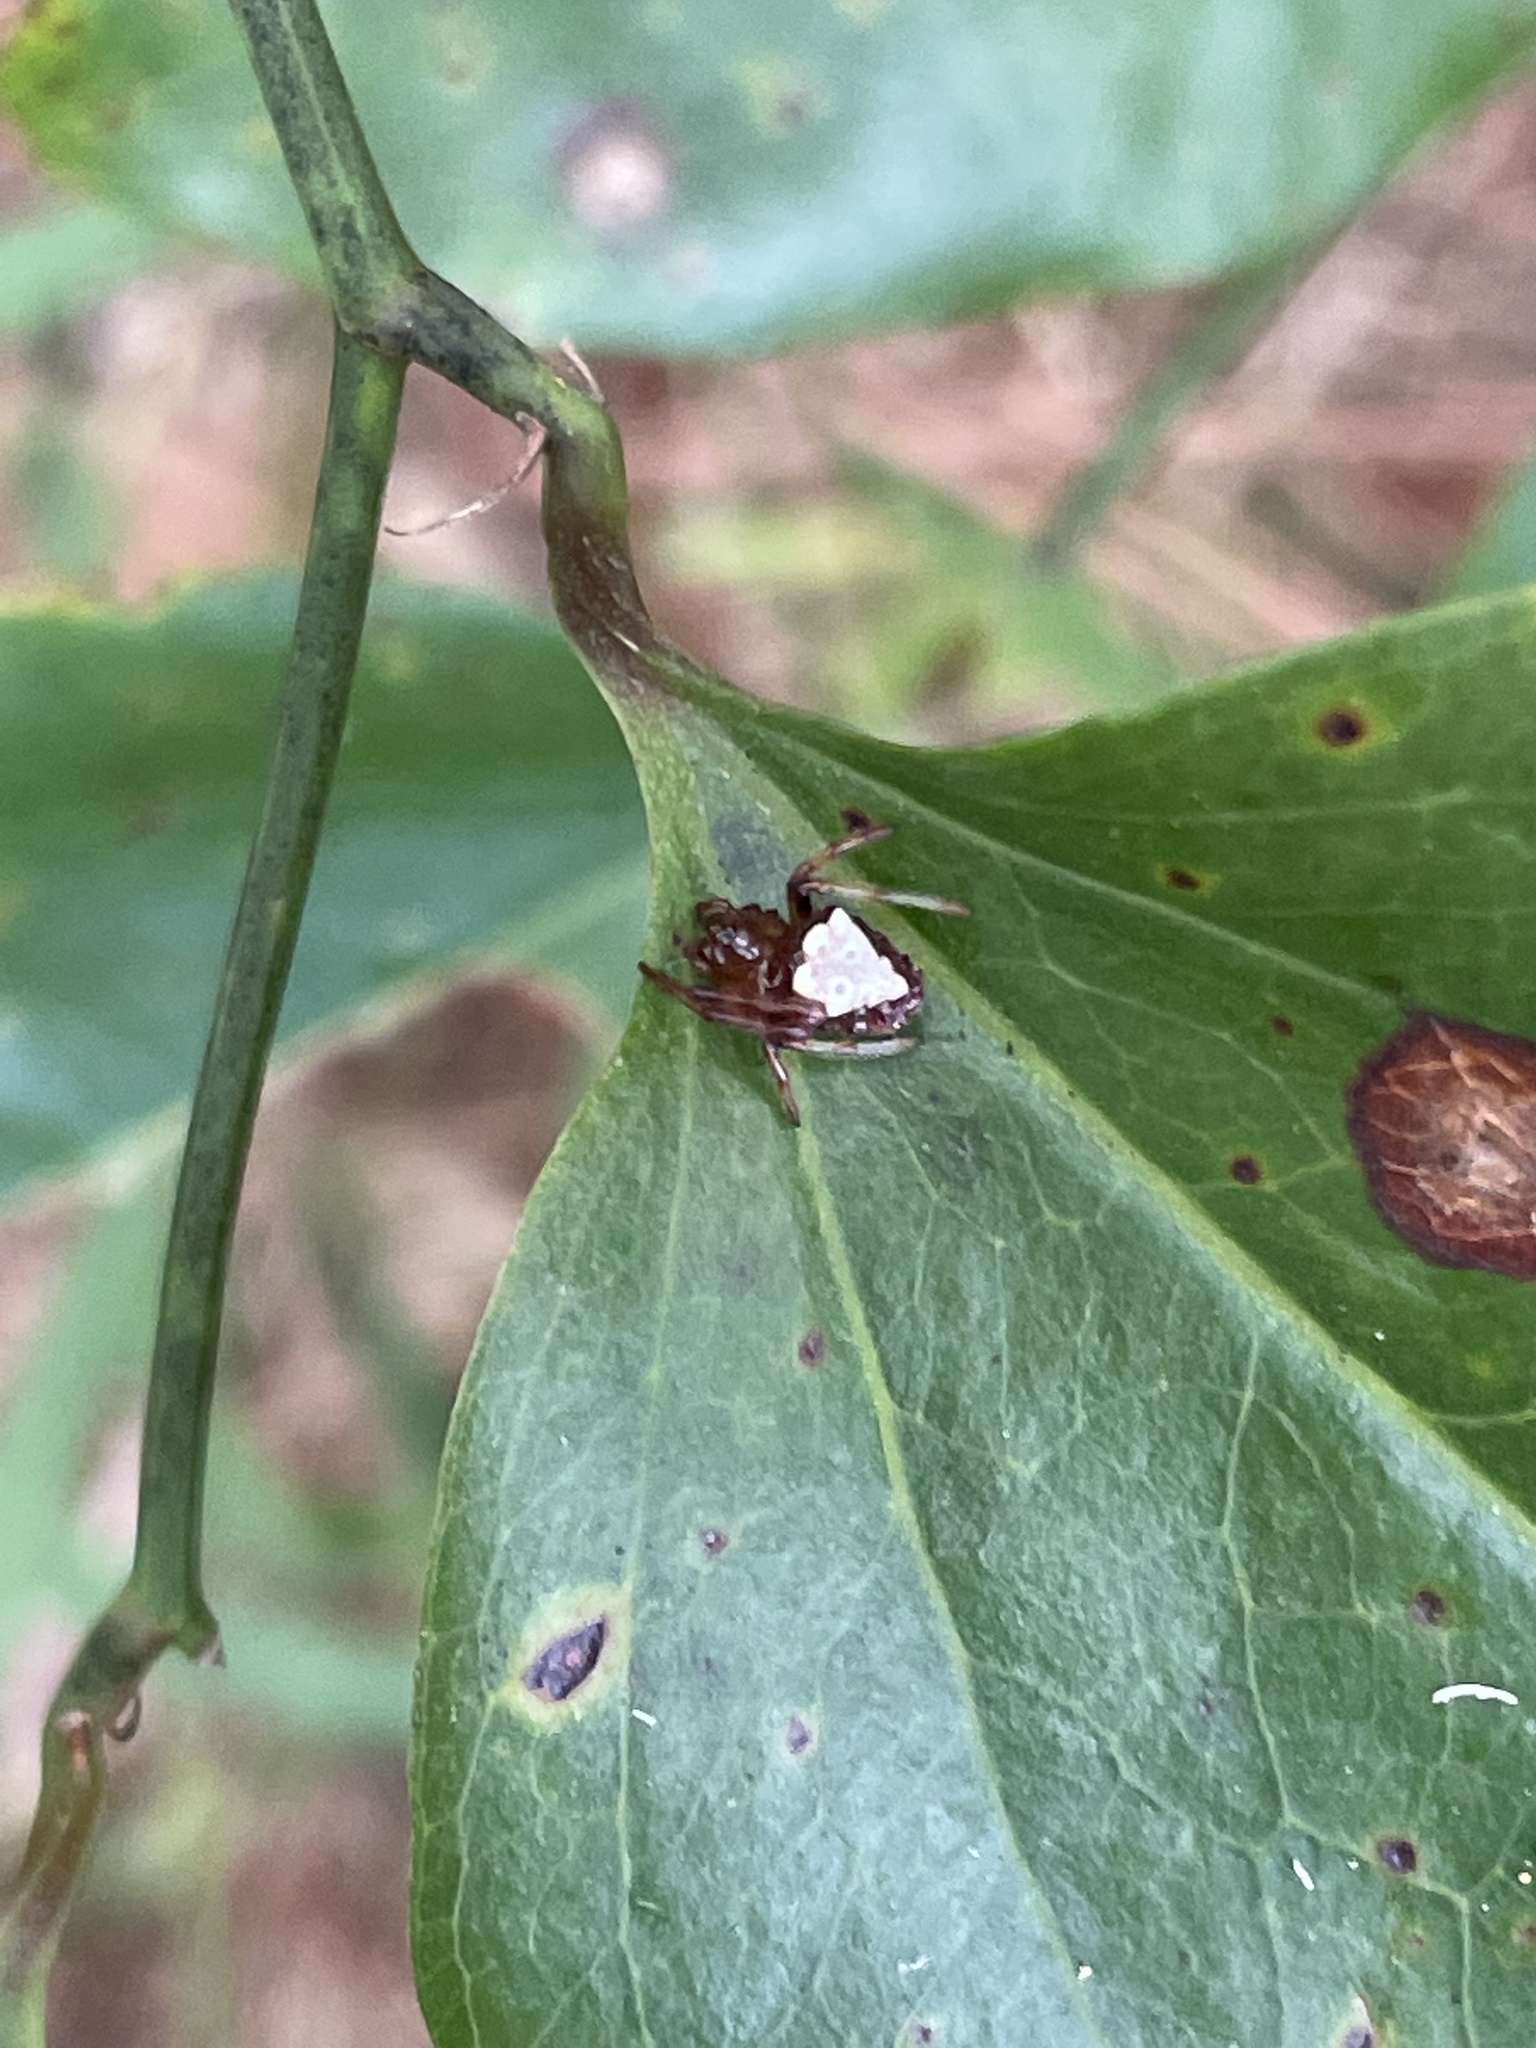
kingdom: Animalia
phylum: Arthropoda
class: Arachnida
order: Araneae
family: Araneidae
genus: Verrucosa
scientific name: Verrucosa arenata
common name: Orb weavers
